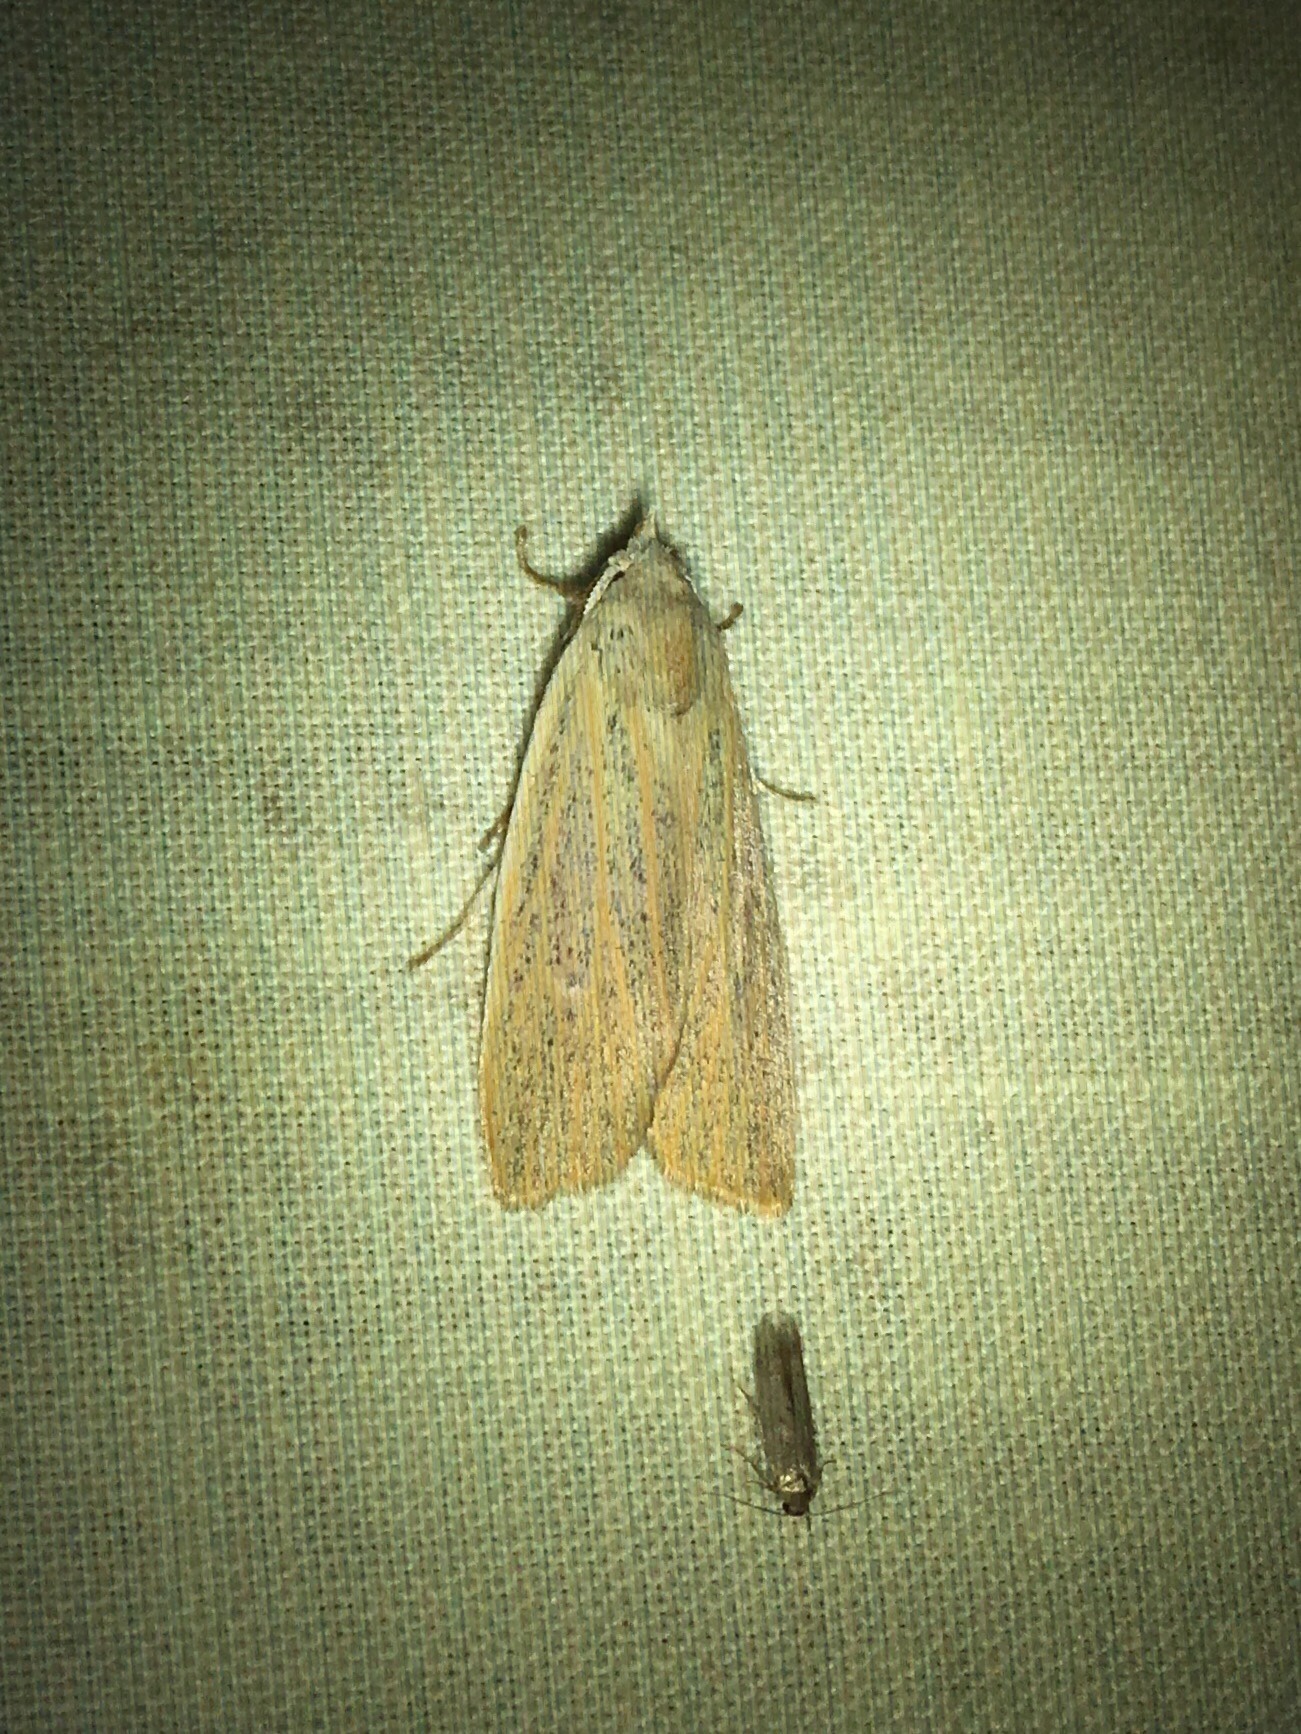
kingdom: Animalia
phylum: Arthropoda
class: Insecta
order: Lepidoptera
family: Erebidae
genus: Palpidia
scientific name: Palpidia pallidior
